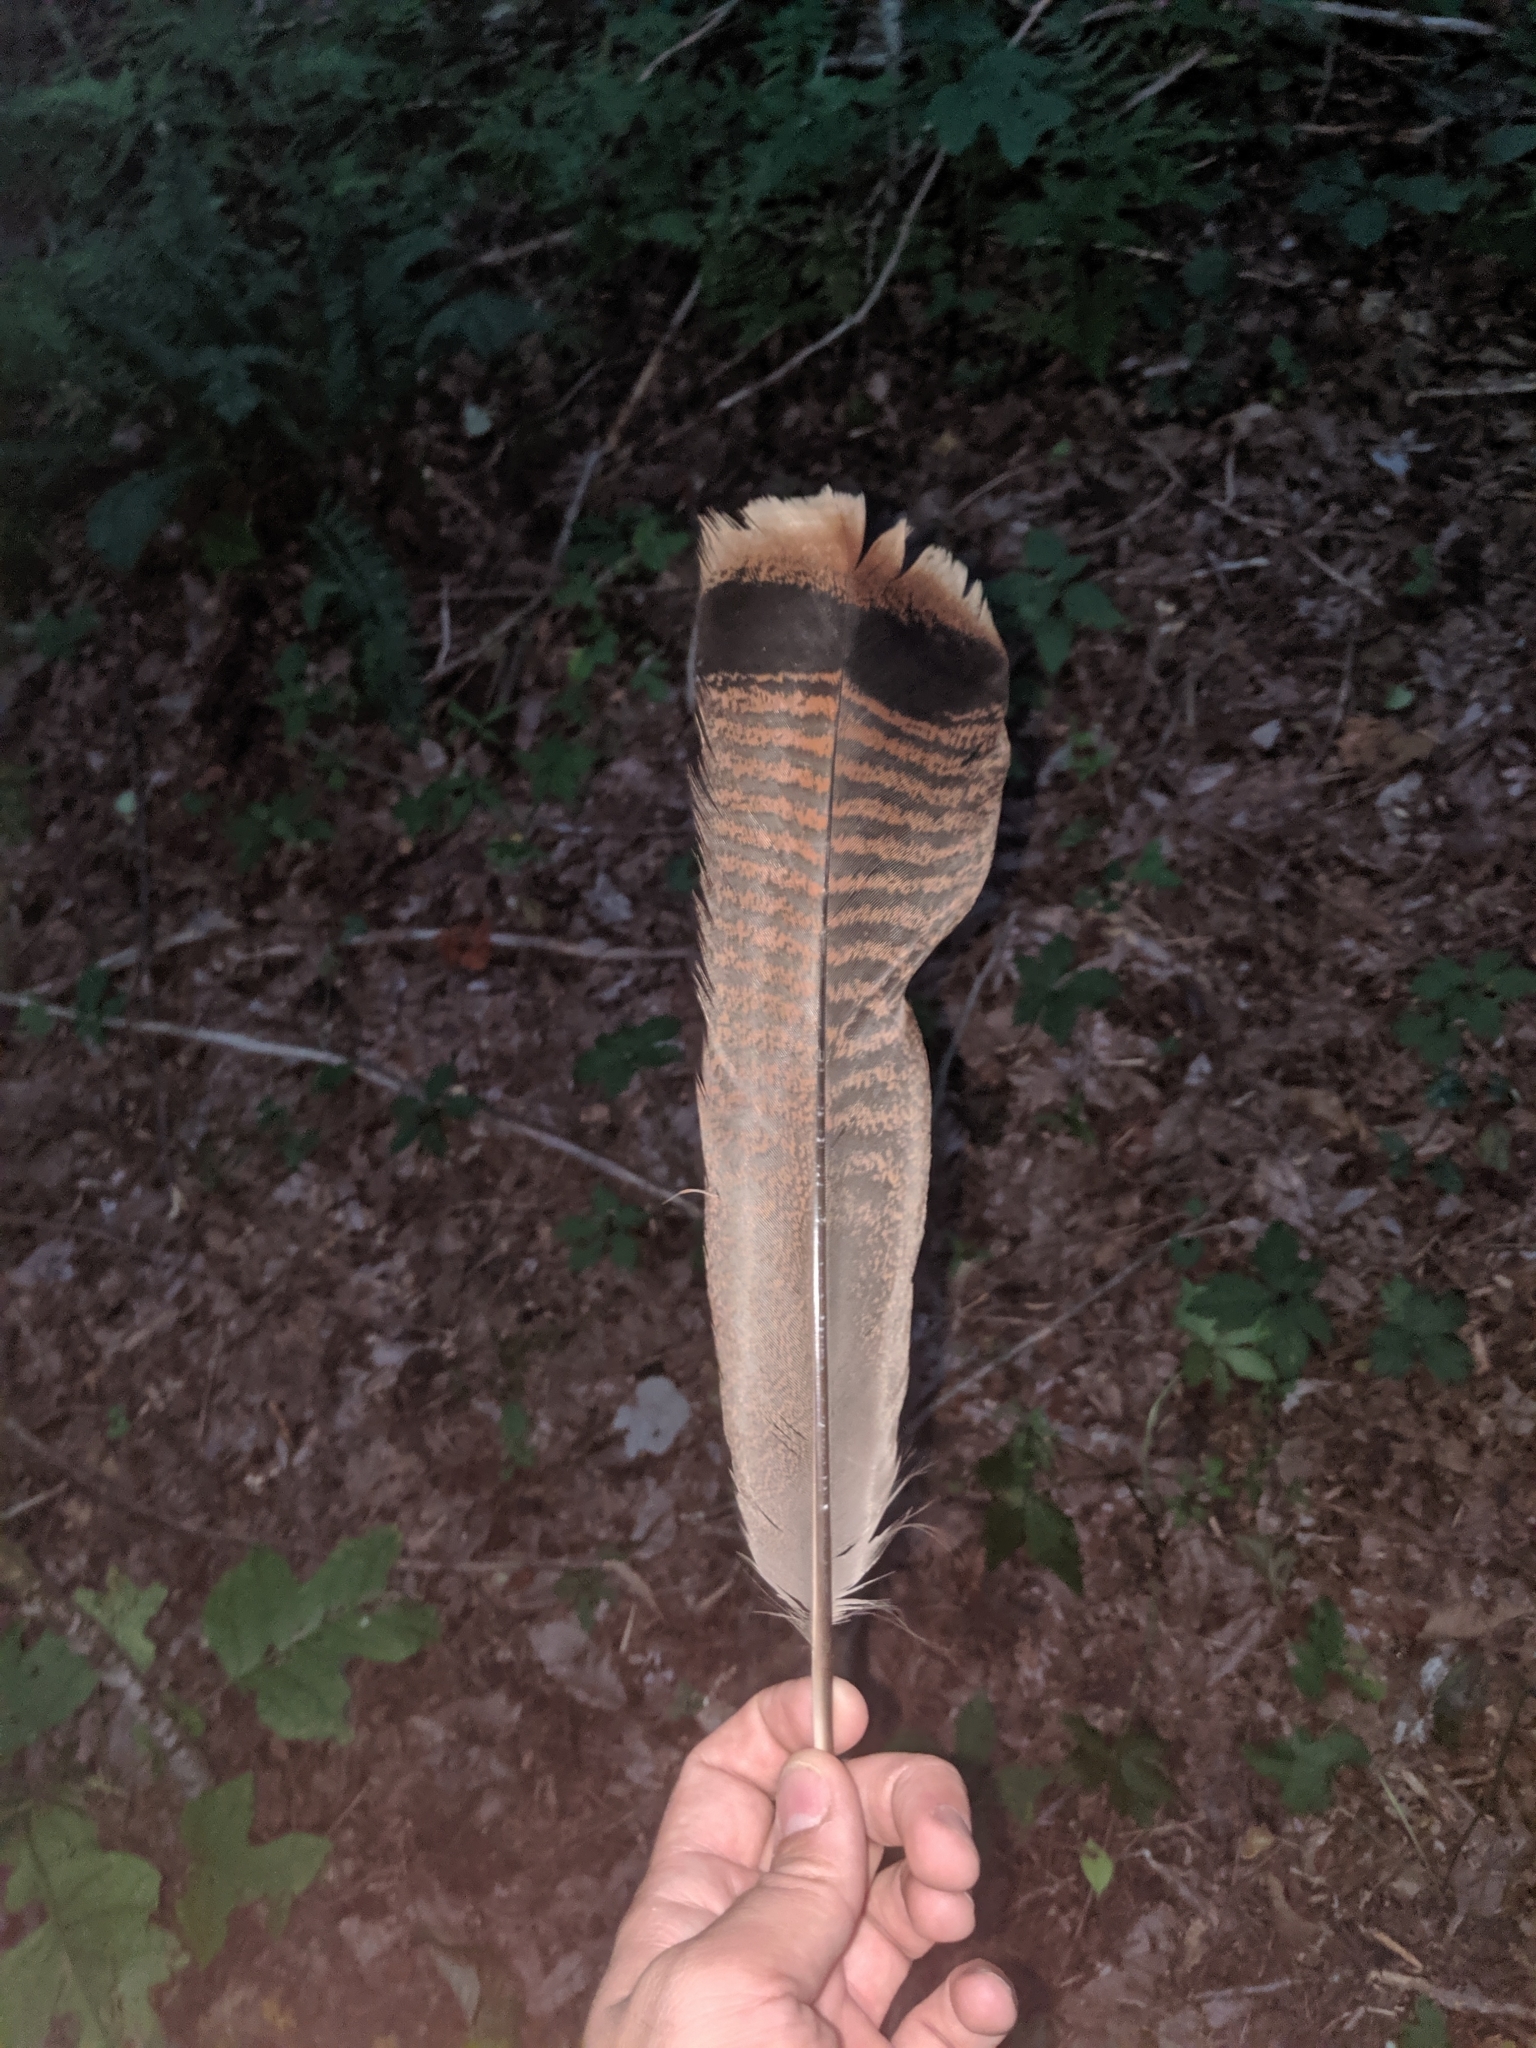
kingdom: Animalia
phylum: Chordata
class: Aves
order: Galliformes
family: Phasianidae
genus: Meleagris
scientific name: Meleagris gallopavo
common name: Wild turkey
